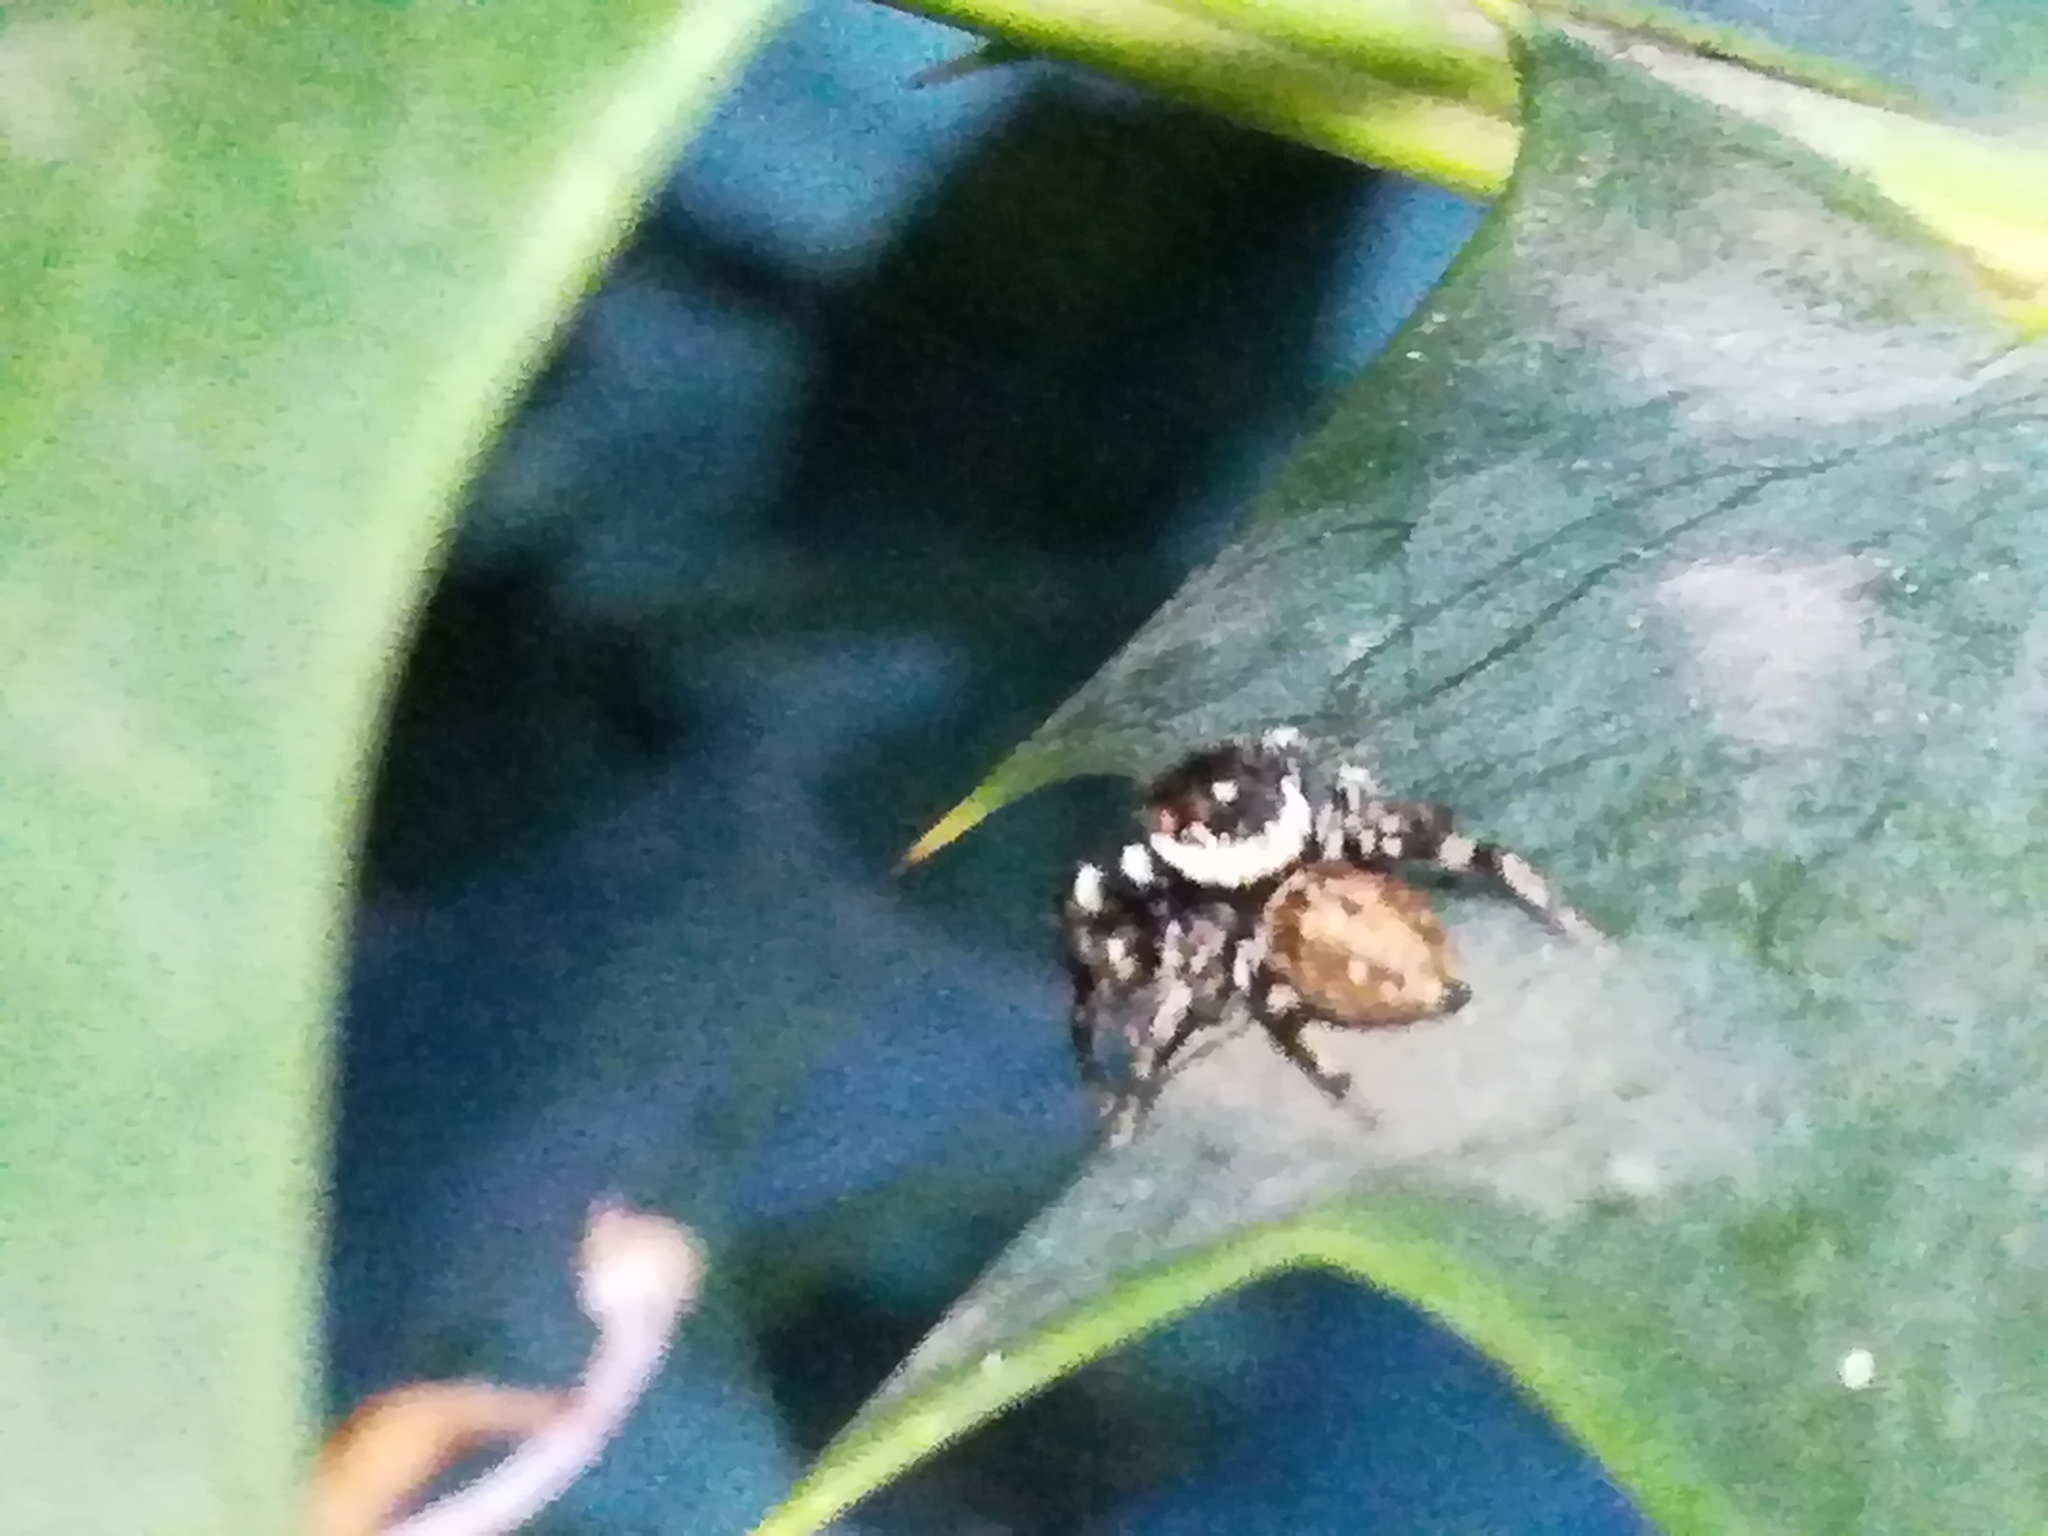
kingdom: Animalia
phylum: Arthropoda
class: Arachnida
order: Araneae
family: Salticidae
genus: Evarcha
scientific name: Evarcha jucunda
